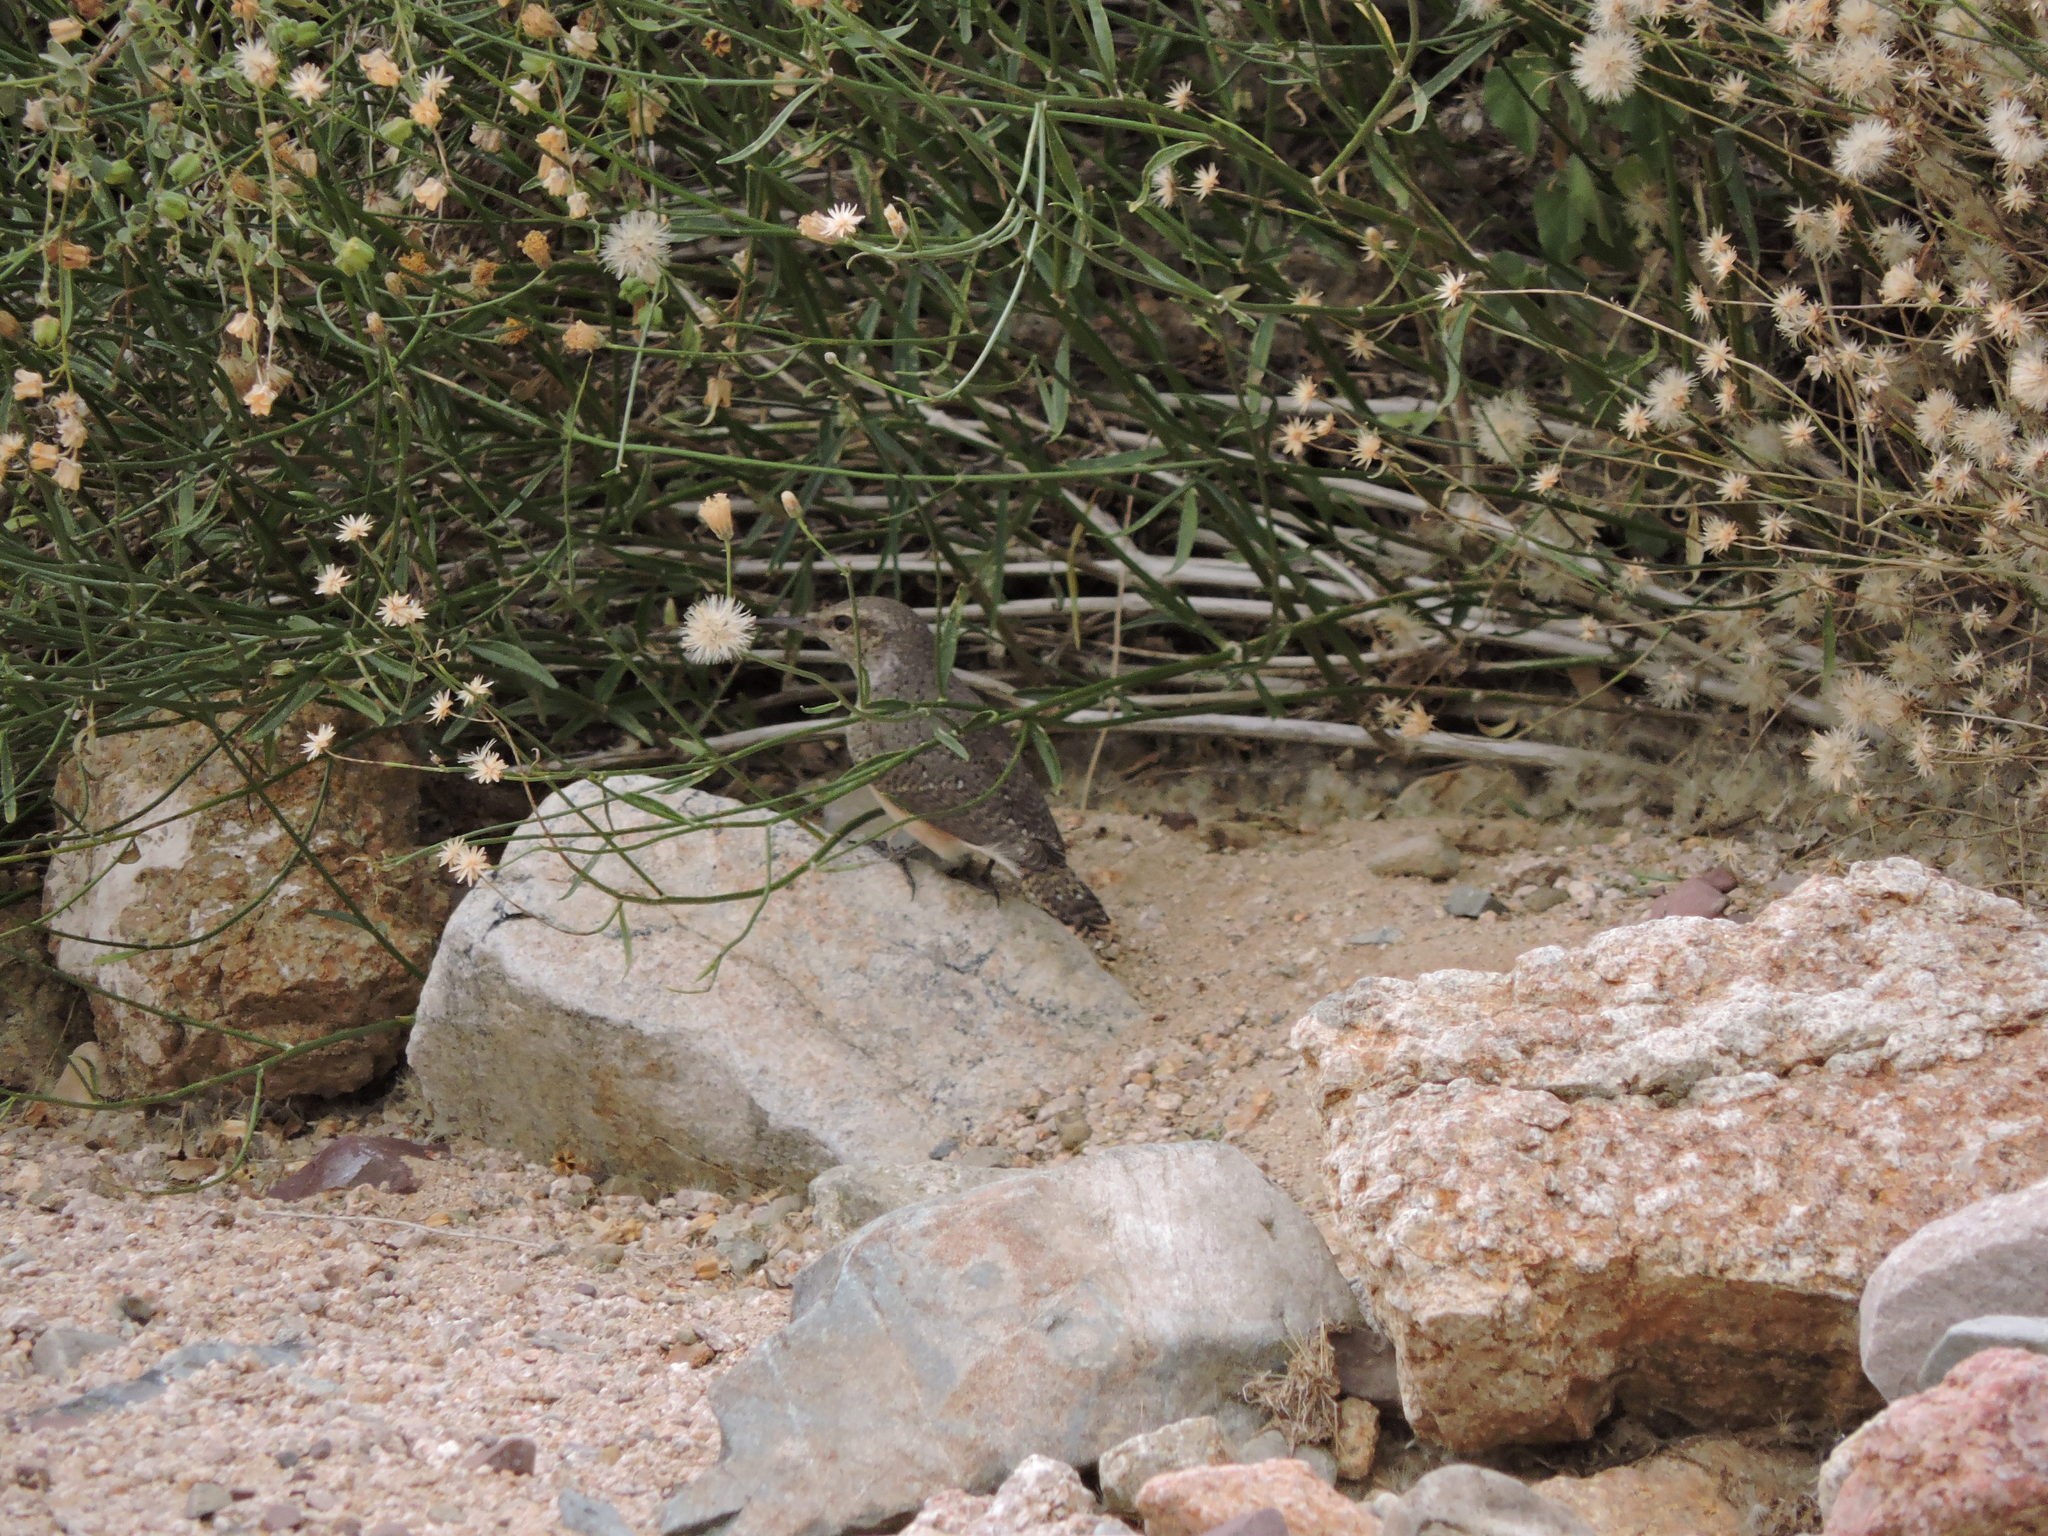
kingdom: Animalia
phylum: Chordata
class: Aves
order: Passeriformes
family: Troglodytidae
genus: Salpinctes
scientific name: Salpinctes obsoletus
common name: Rock wren
